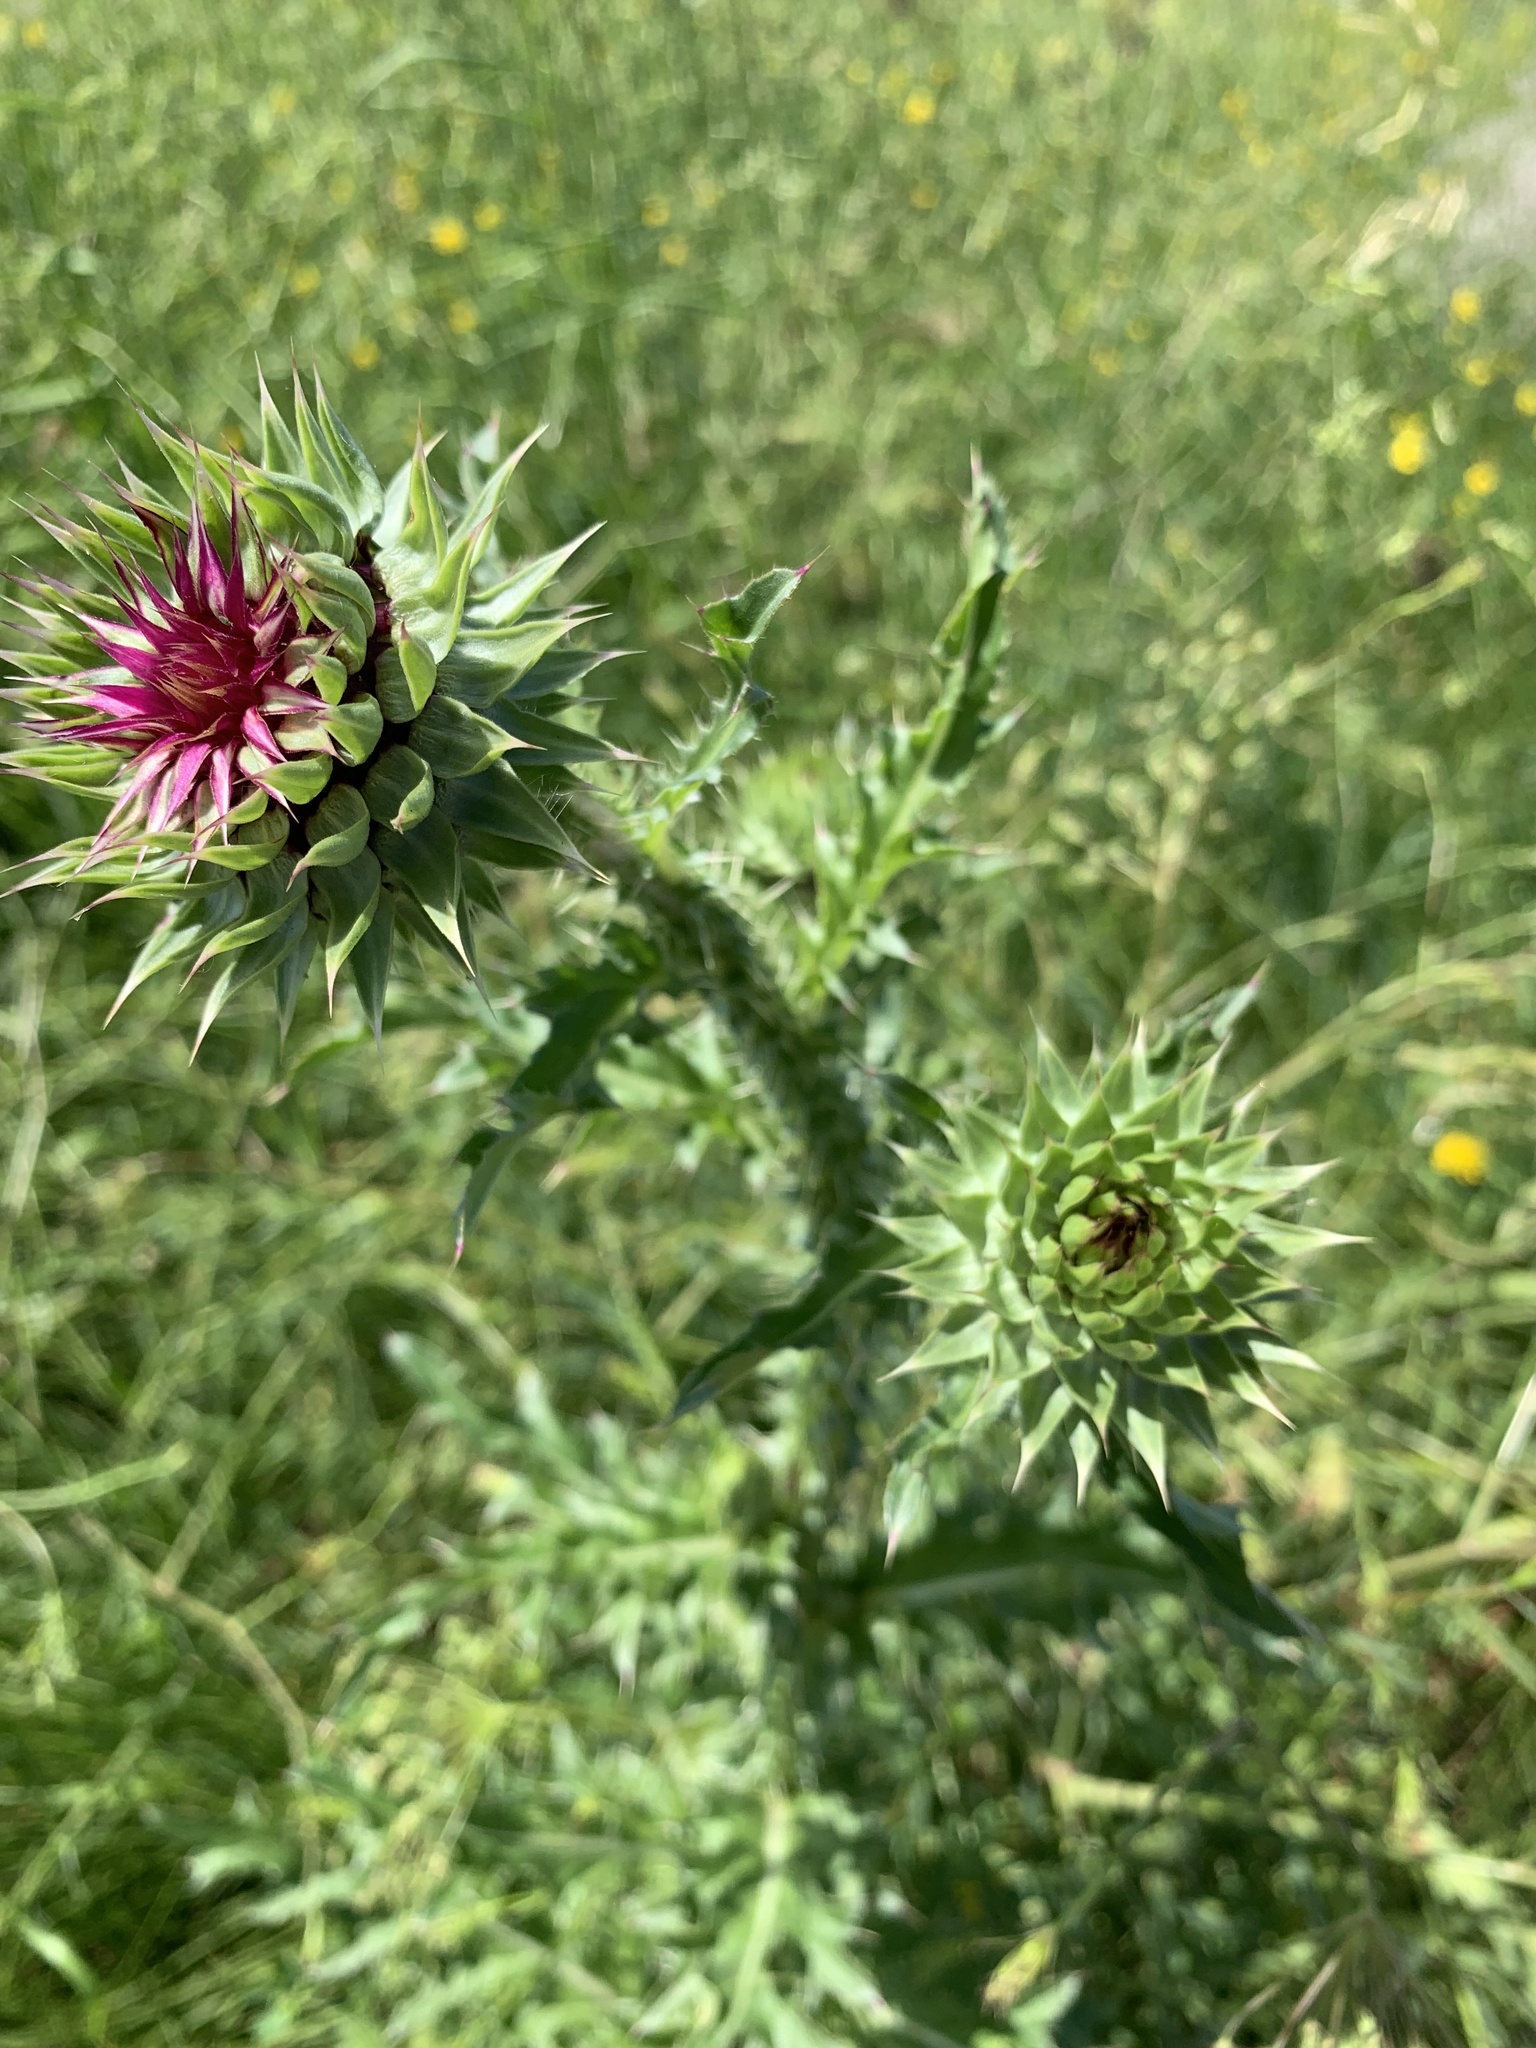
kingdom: Plantae
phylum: Tracheophyta
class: Magnoliopsida
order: Asterales
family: Asteraceae
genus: Carduus
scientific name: Carduus nutans
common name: Musk thistle
